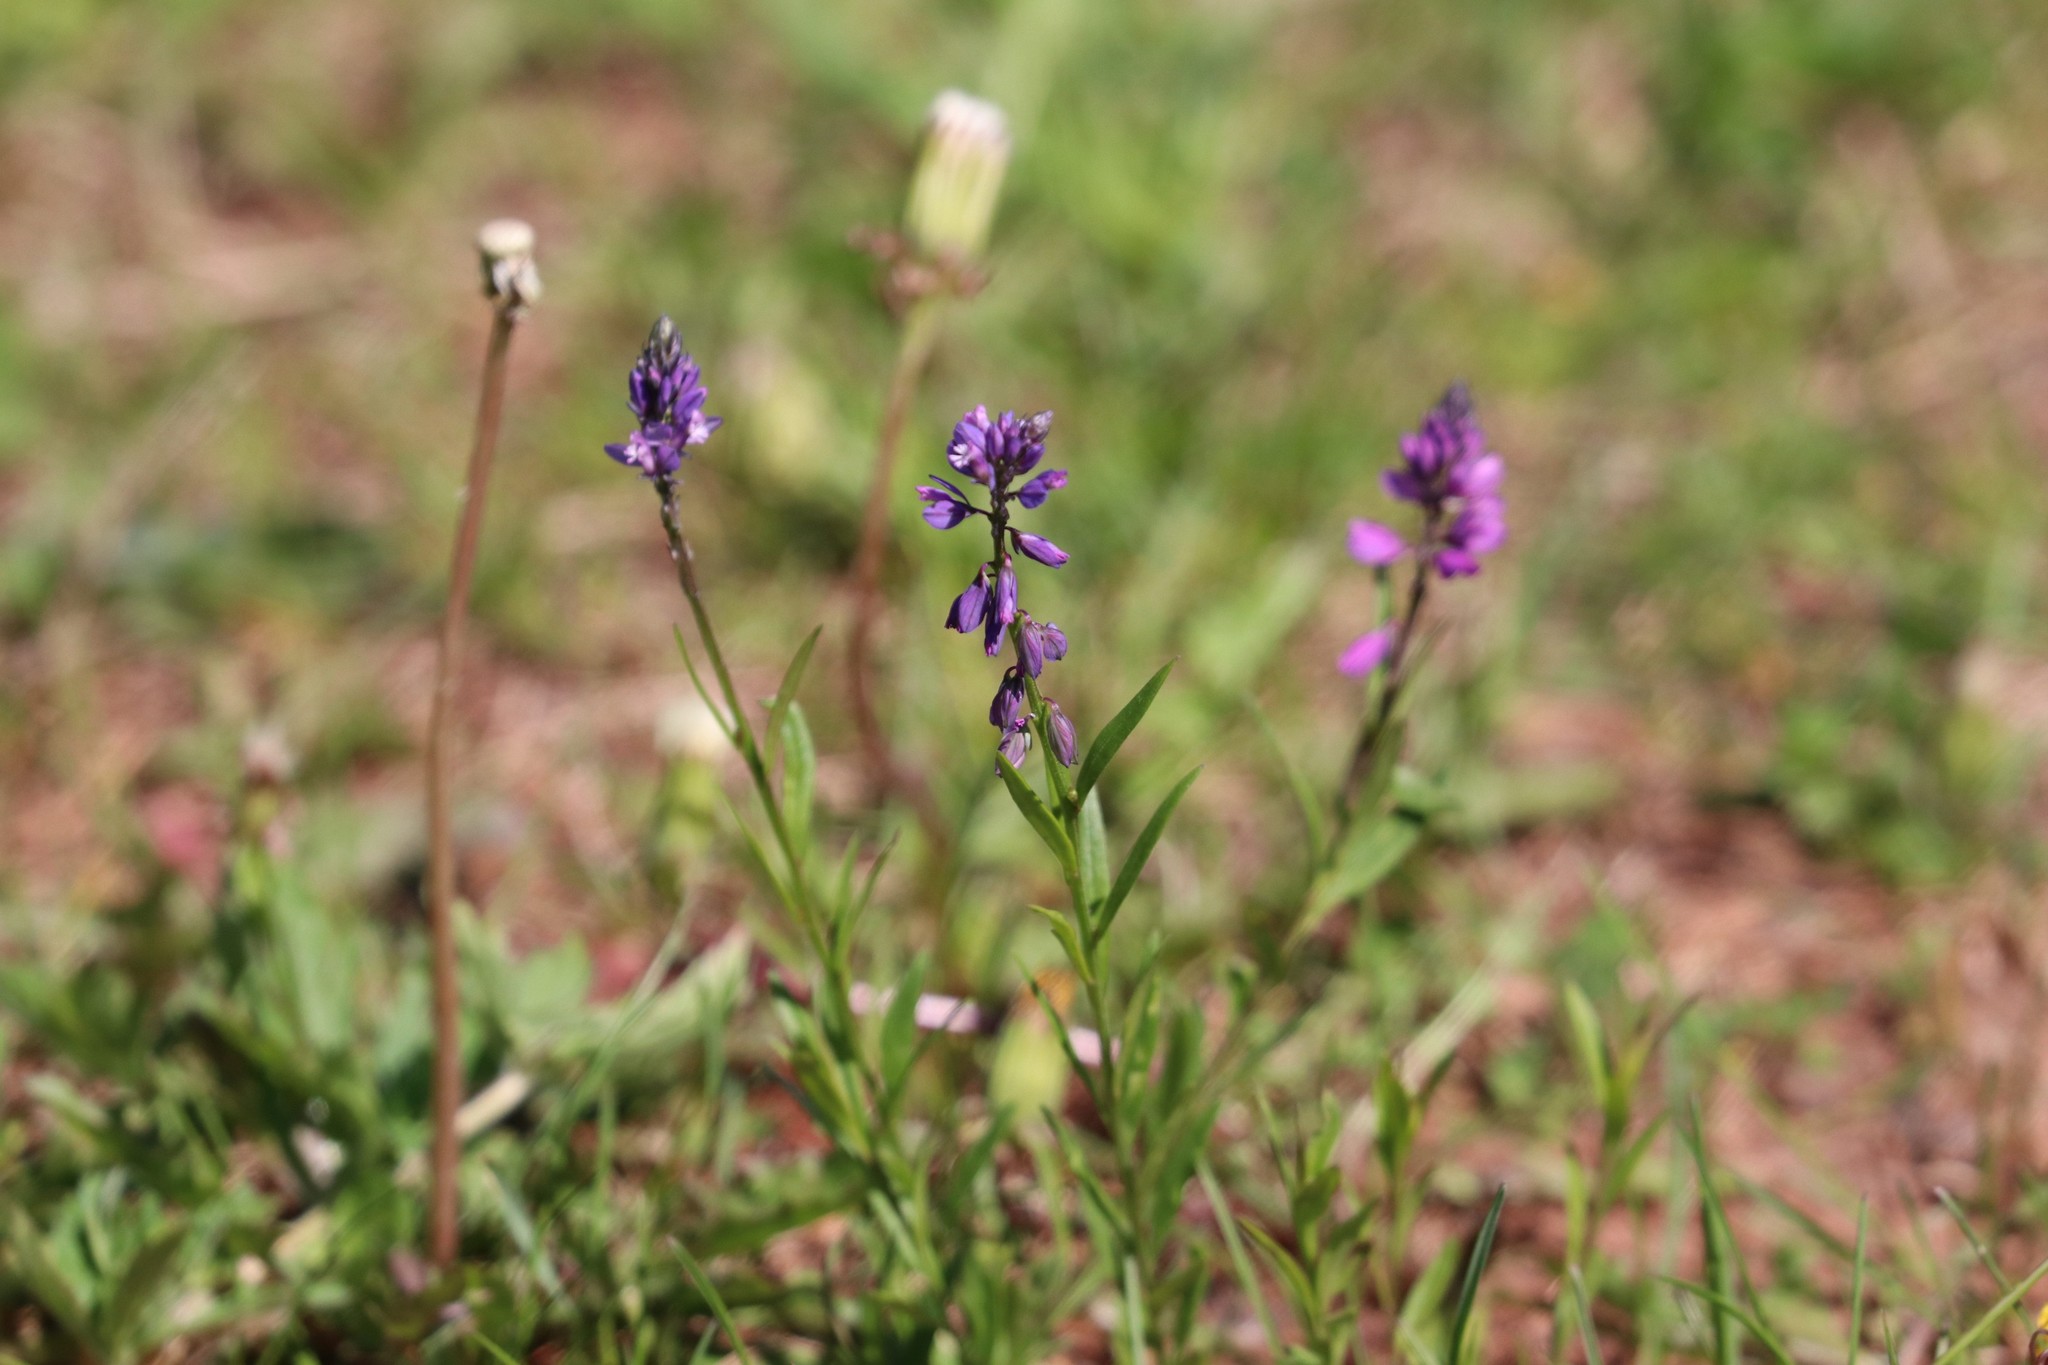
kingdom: Plantae
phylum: Tracheophyta
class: Magnoliopsida
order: Fabales
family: Polygalaceae
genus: Polygala
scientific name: Polygala comosa
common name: Tufted milkwort
